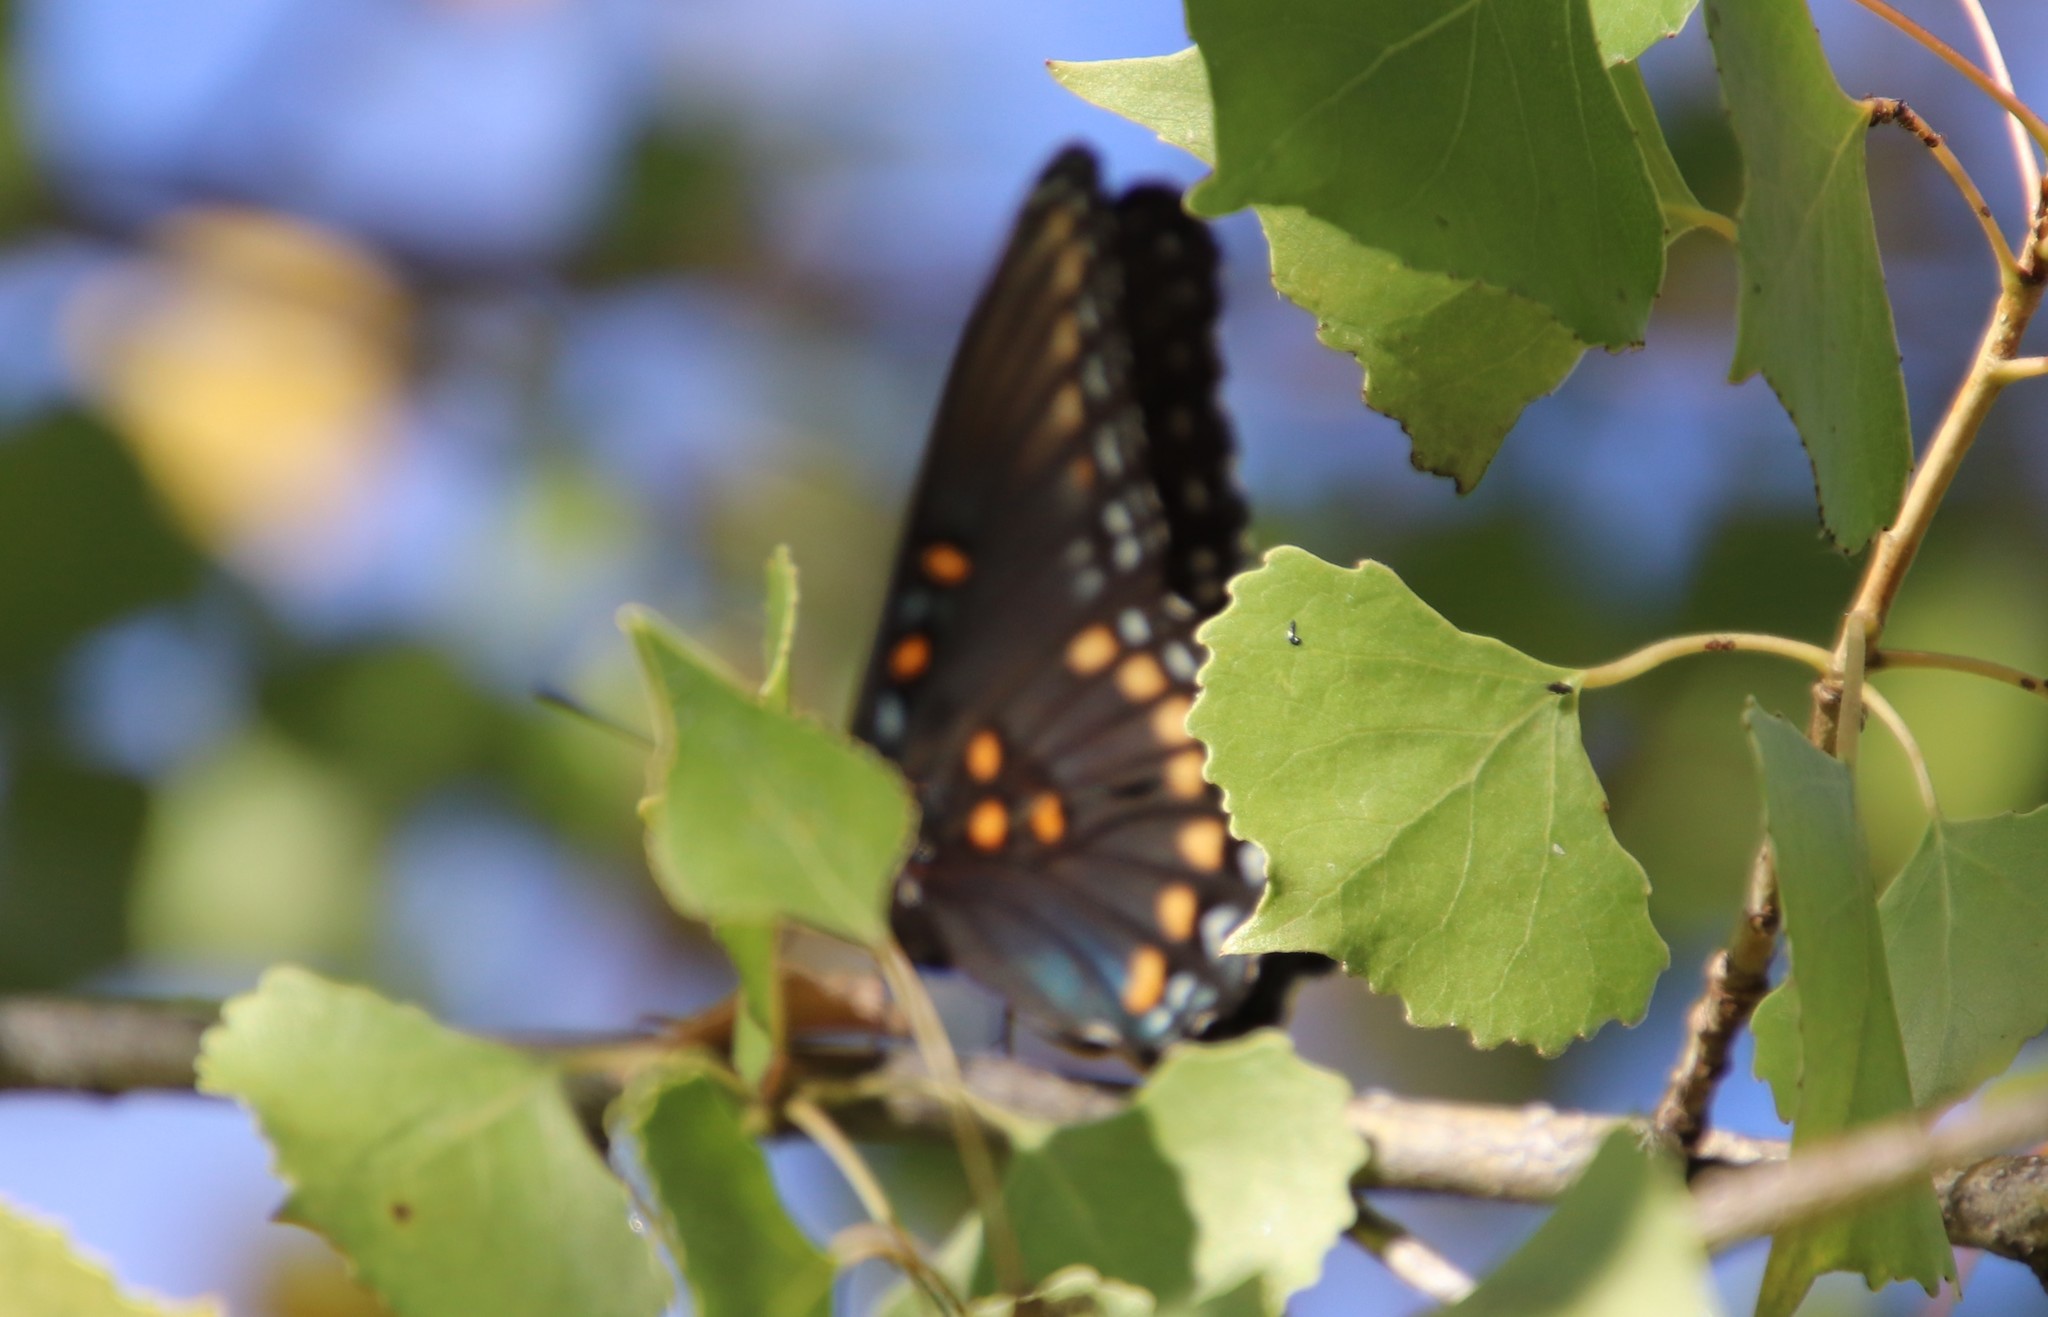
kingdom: Animalia
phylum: Arthropoda
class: Insecta
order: Lepidoptera
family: Nymphalidae
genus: Limenitis
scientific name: Limenitis arthemis
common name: Red-spotted admiral
